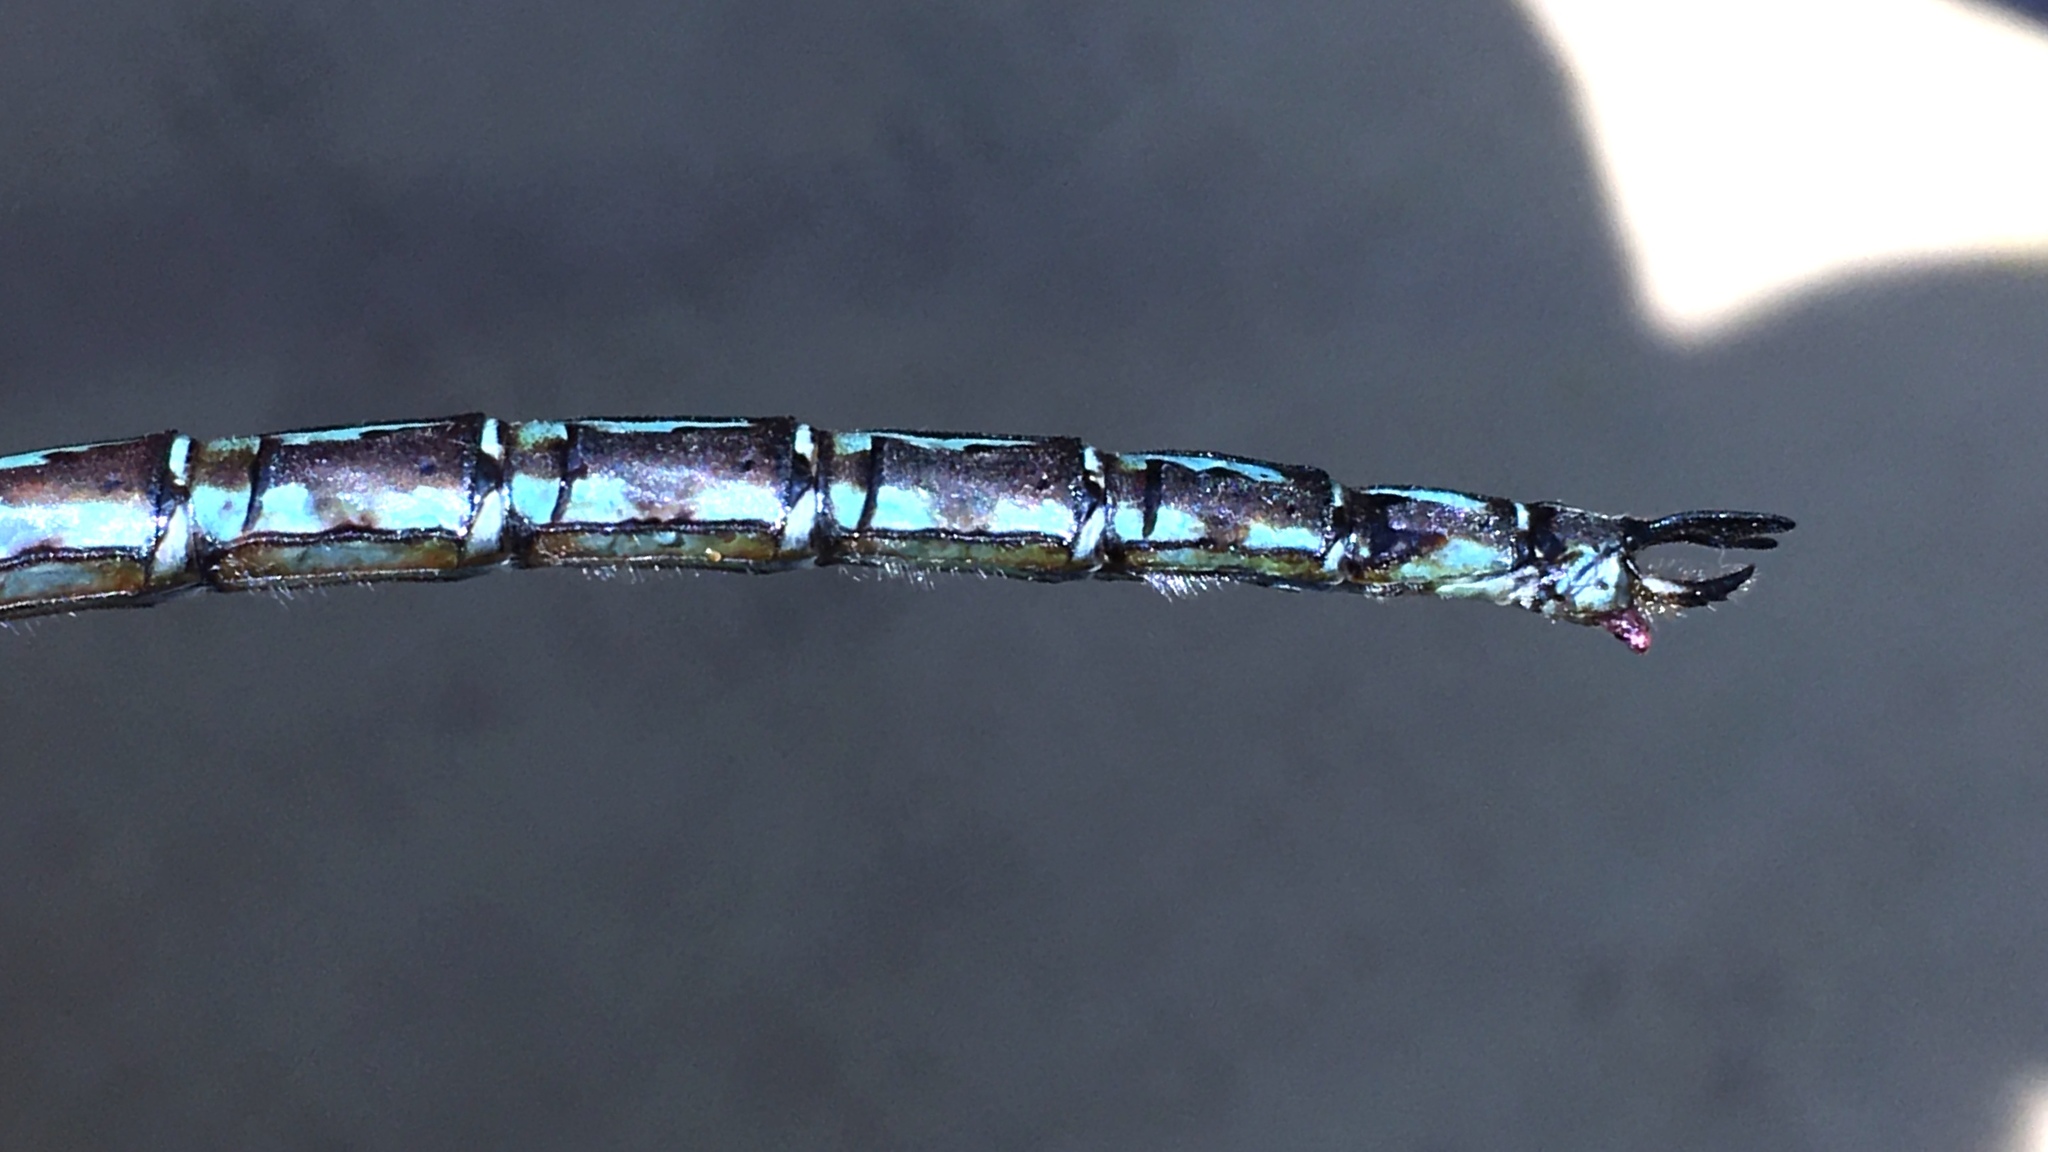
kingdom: Animalia
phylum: Arthropoda
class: Insecta
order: Odonata
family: Aeshnidae
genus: Nasiaeschna
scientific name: Nasiaeschna pentacantha
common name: Cyrano darner
